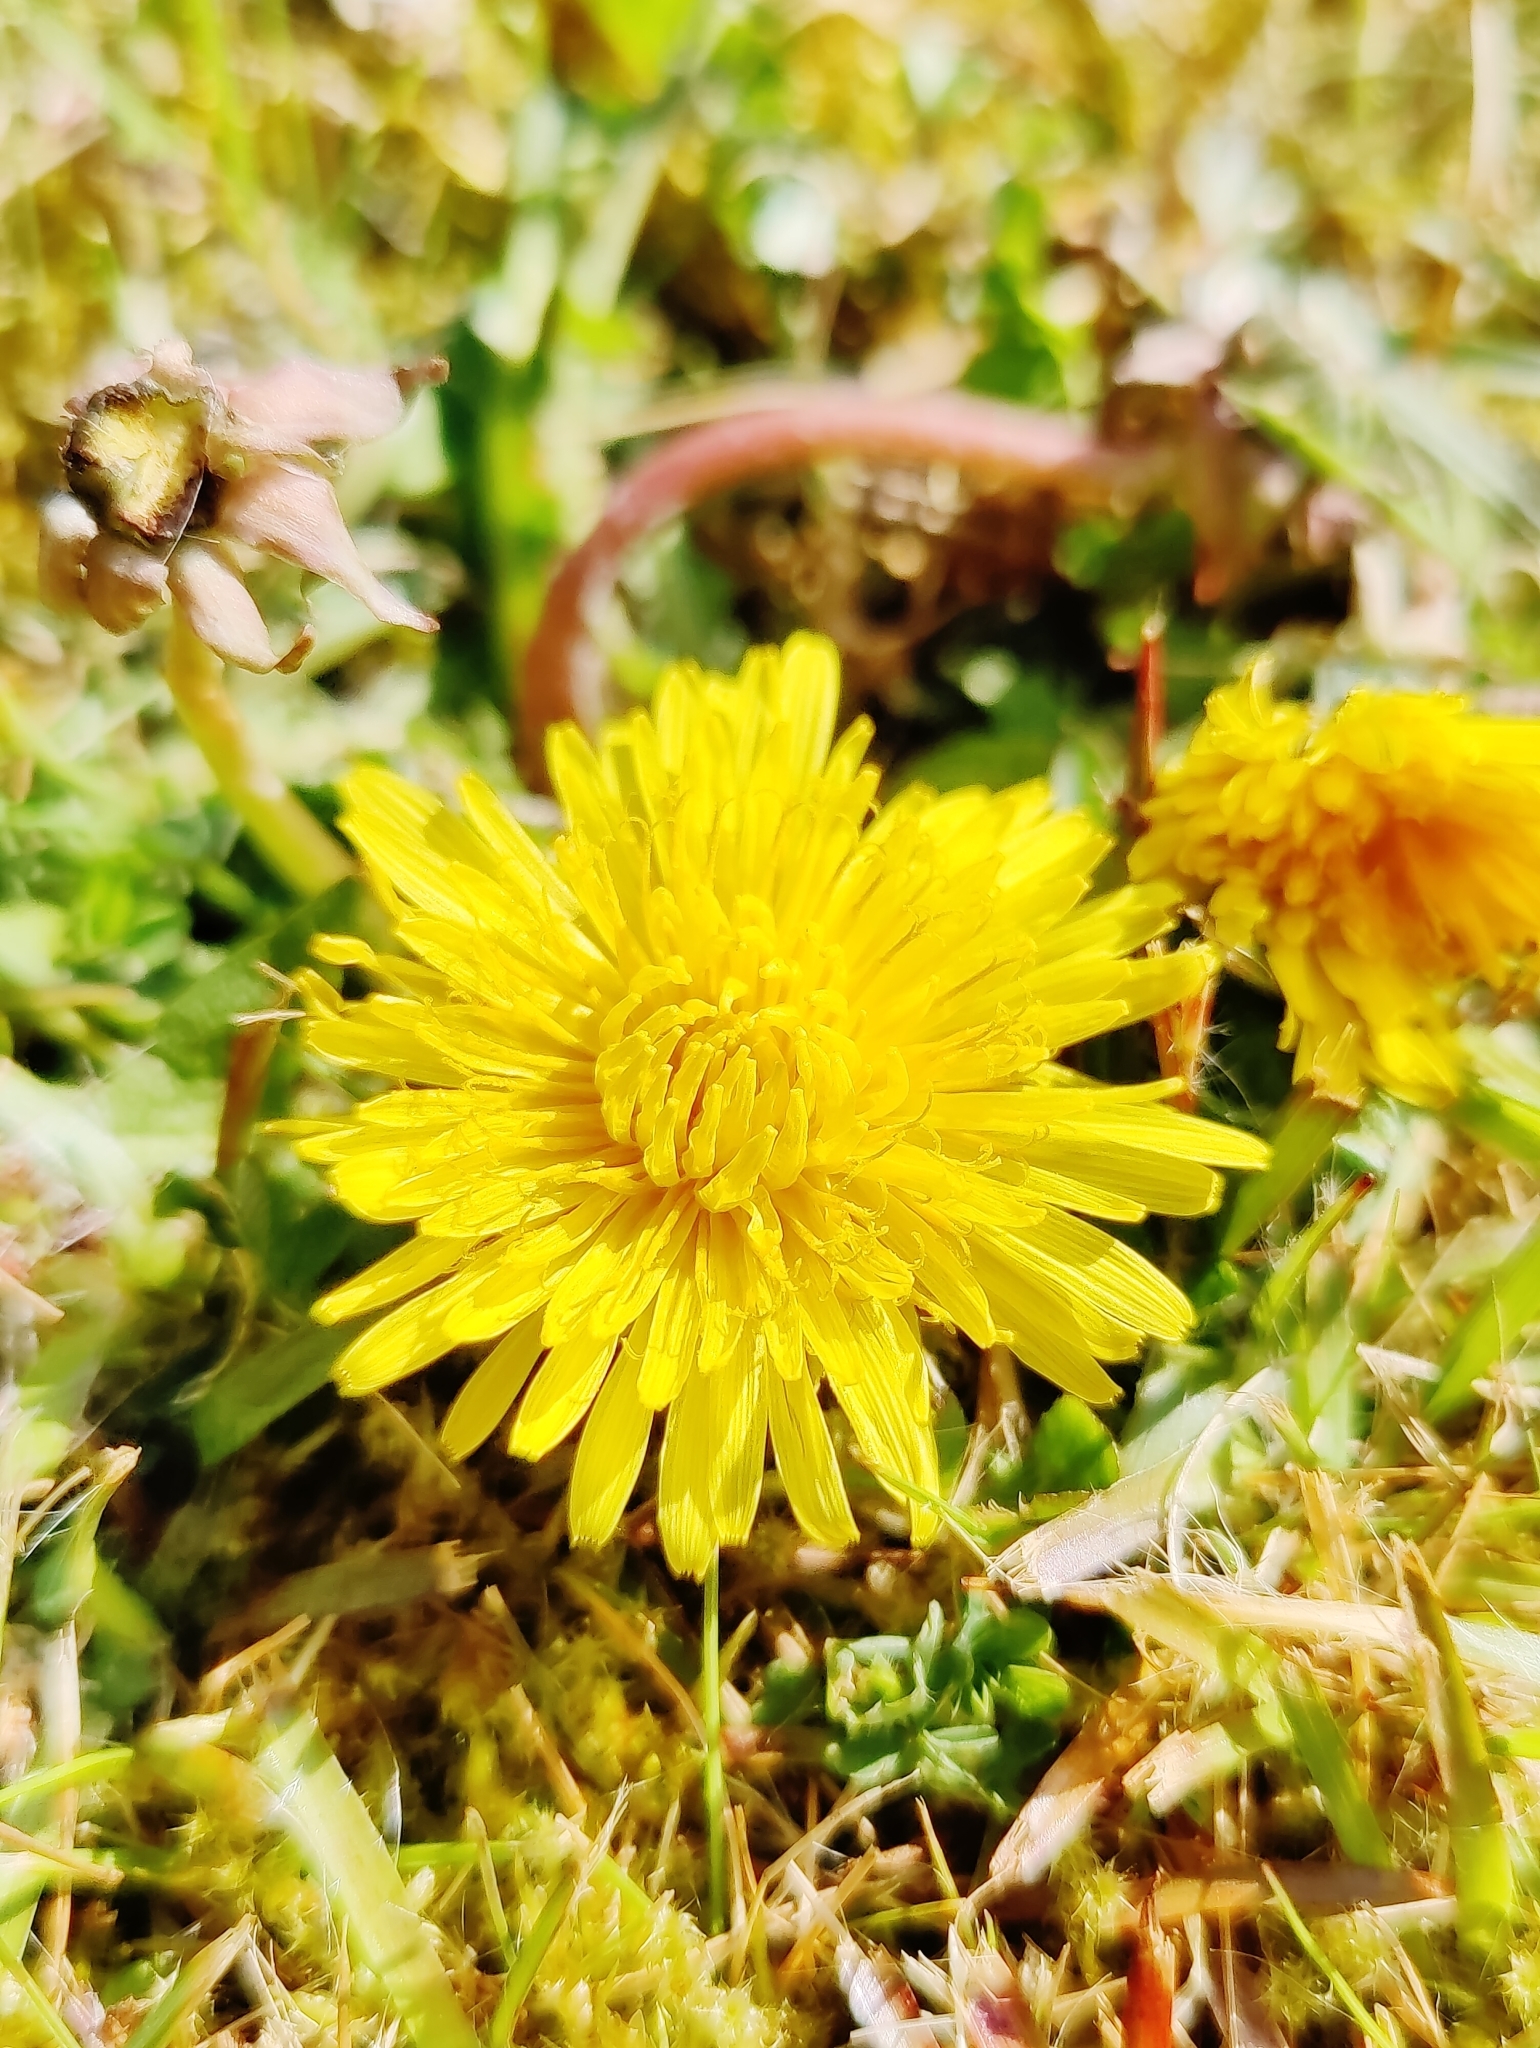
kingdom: Plantae
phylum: Tracheophyta
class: Magnoliopsida
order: Asterales
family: Asteraceae
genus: Taraxacum
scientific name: Taraxacum officinale
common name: Common dandelion
